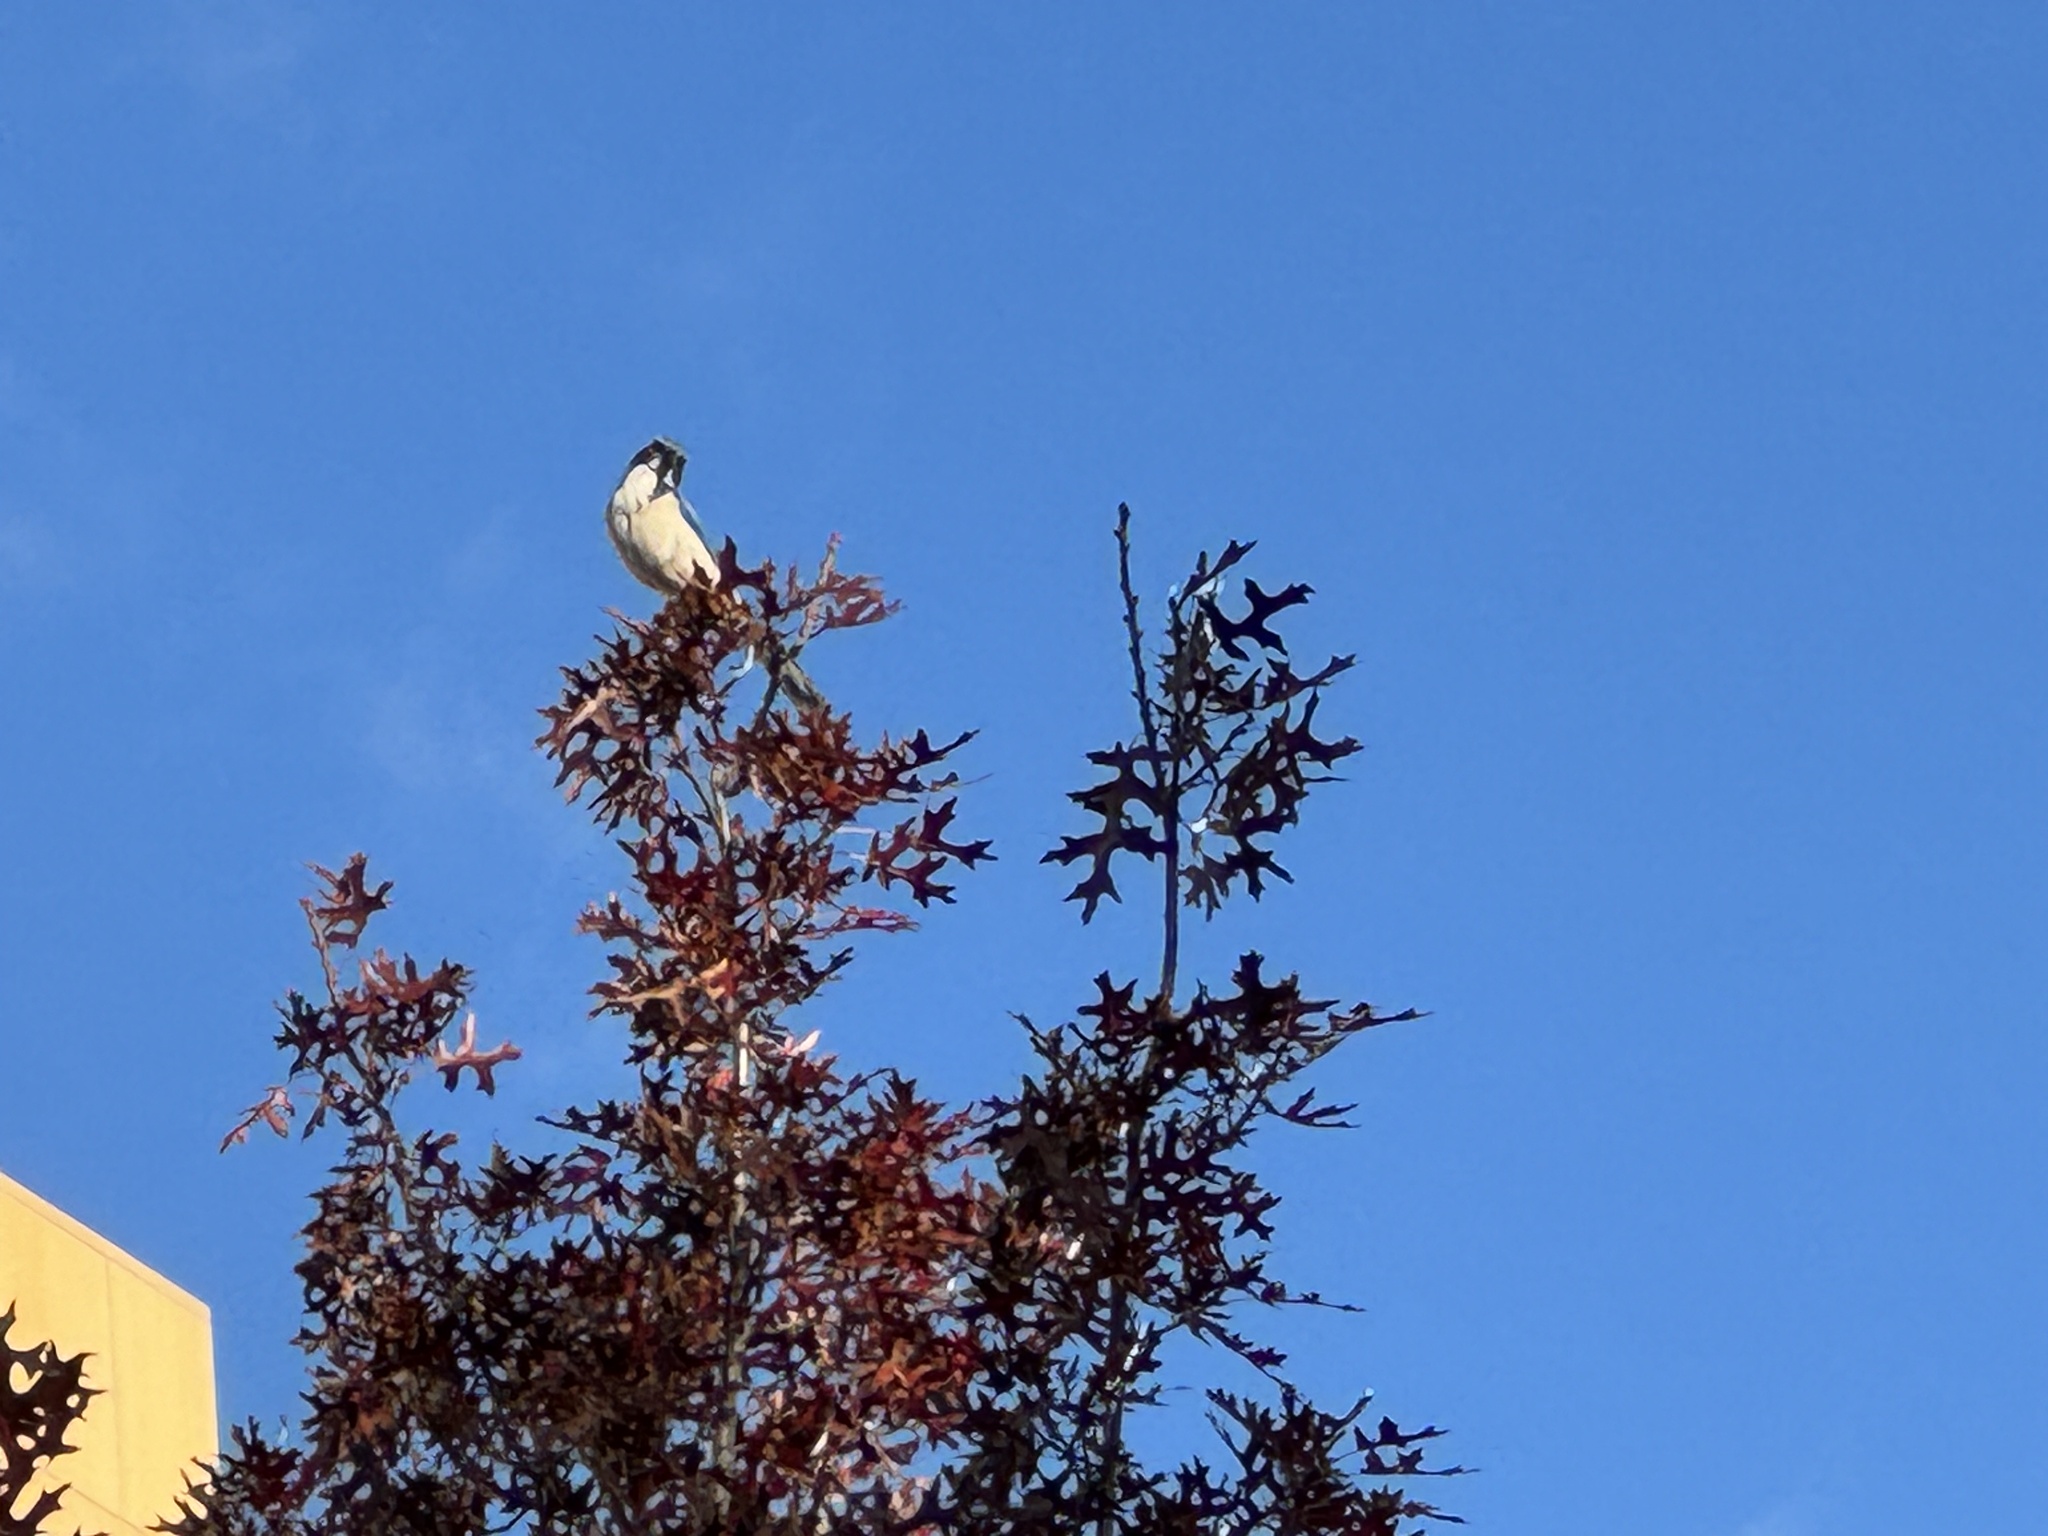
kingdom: Animalia
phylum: Chordata
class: Aves
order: Passeriformes
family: Corvidae
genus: Aphelocoma
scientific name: Aphelocoma californica
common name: California scrub-jay
